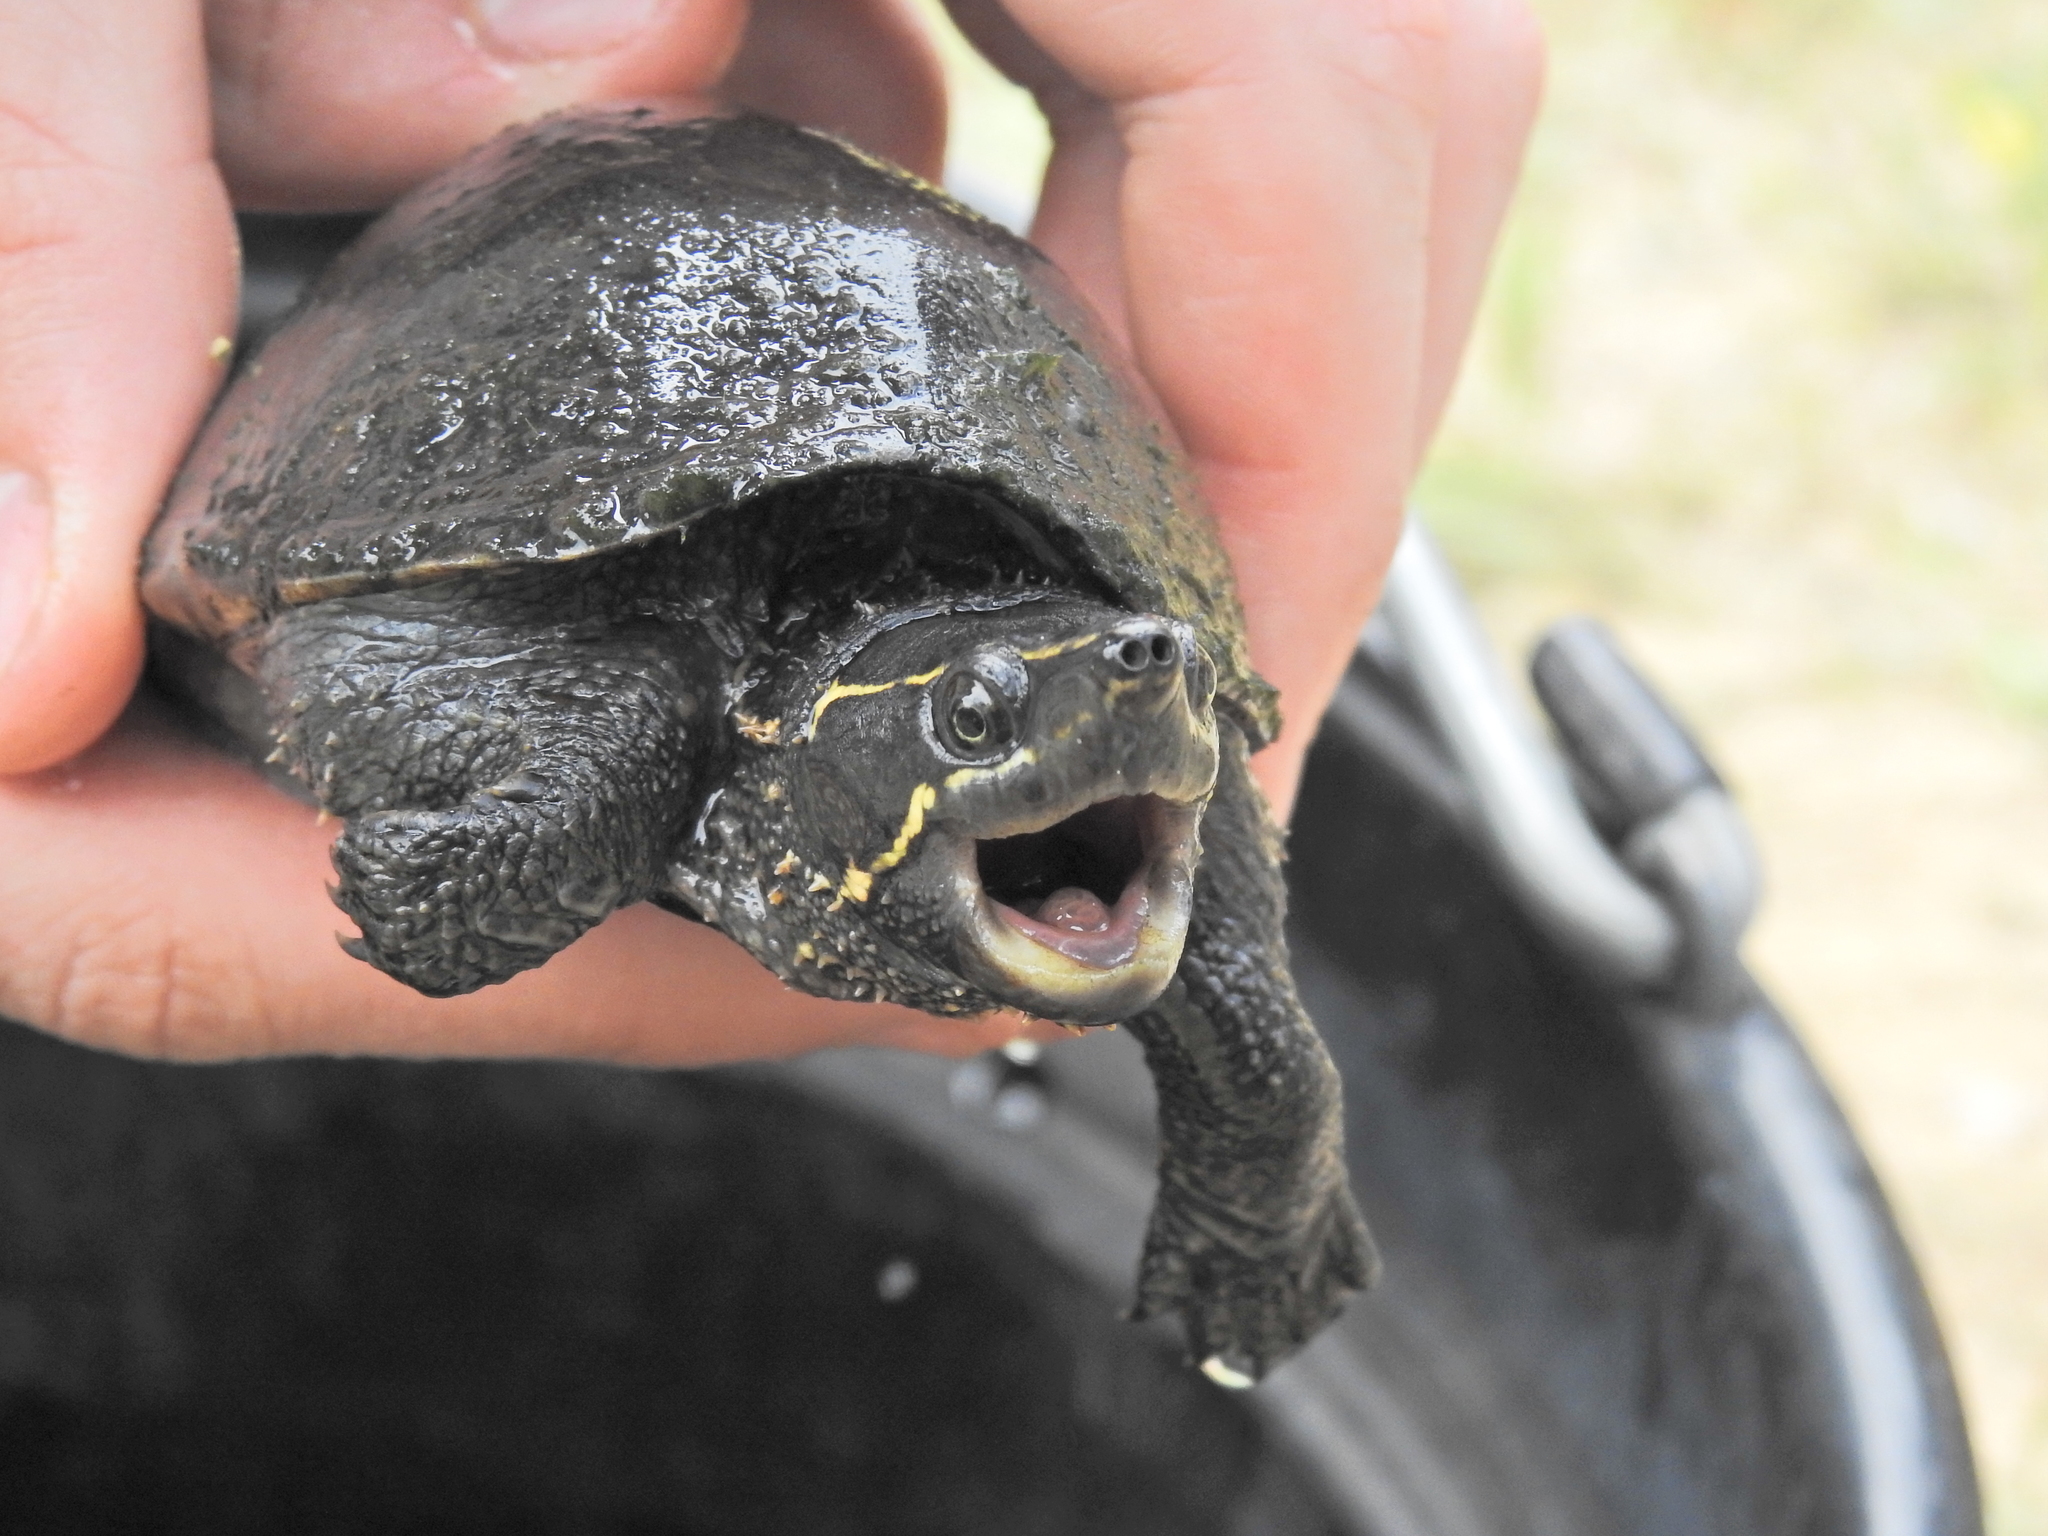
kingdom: Animalia
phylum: Chordata
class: Testudines
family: Kinosternidae
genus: Sternotherus
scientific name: Sternotherus odoratus
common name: Common musk turtle
